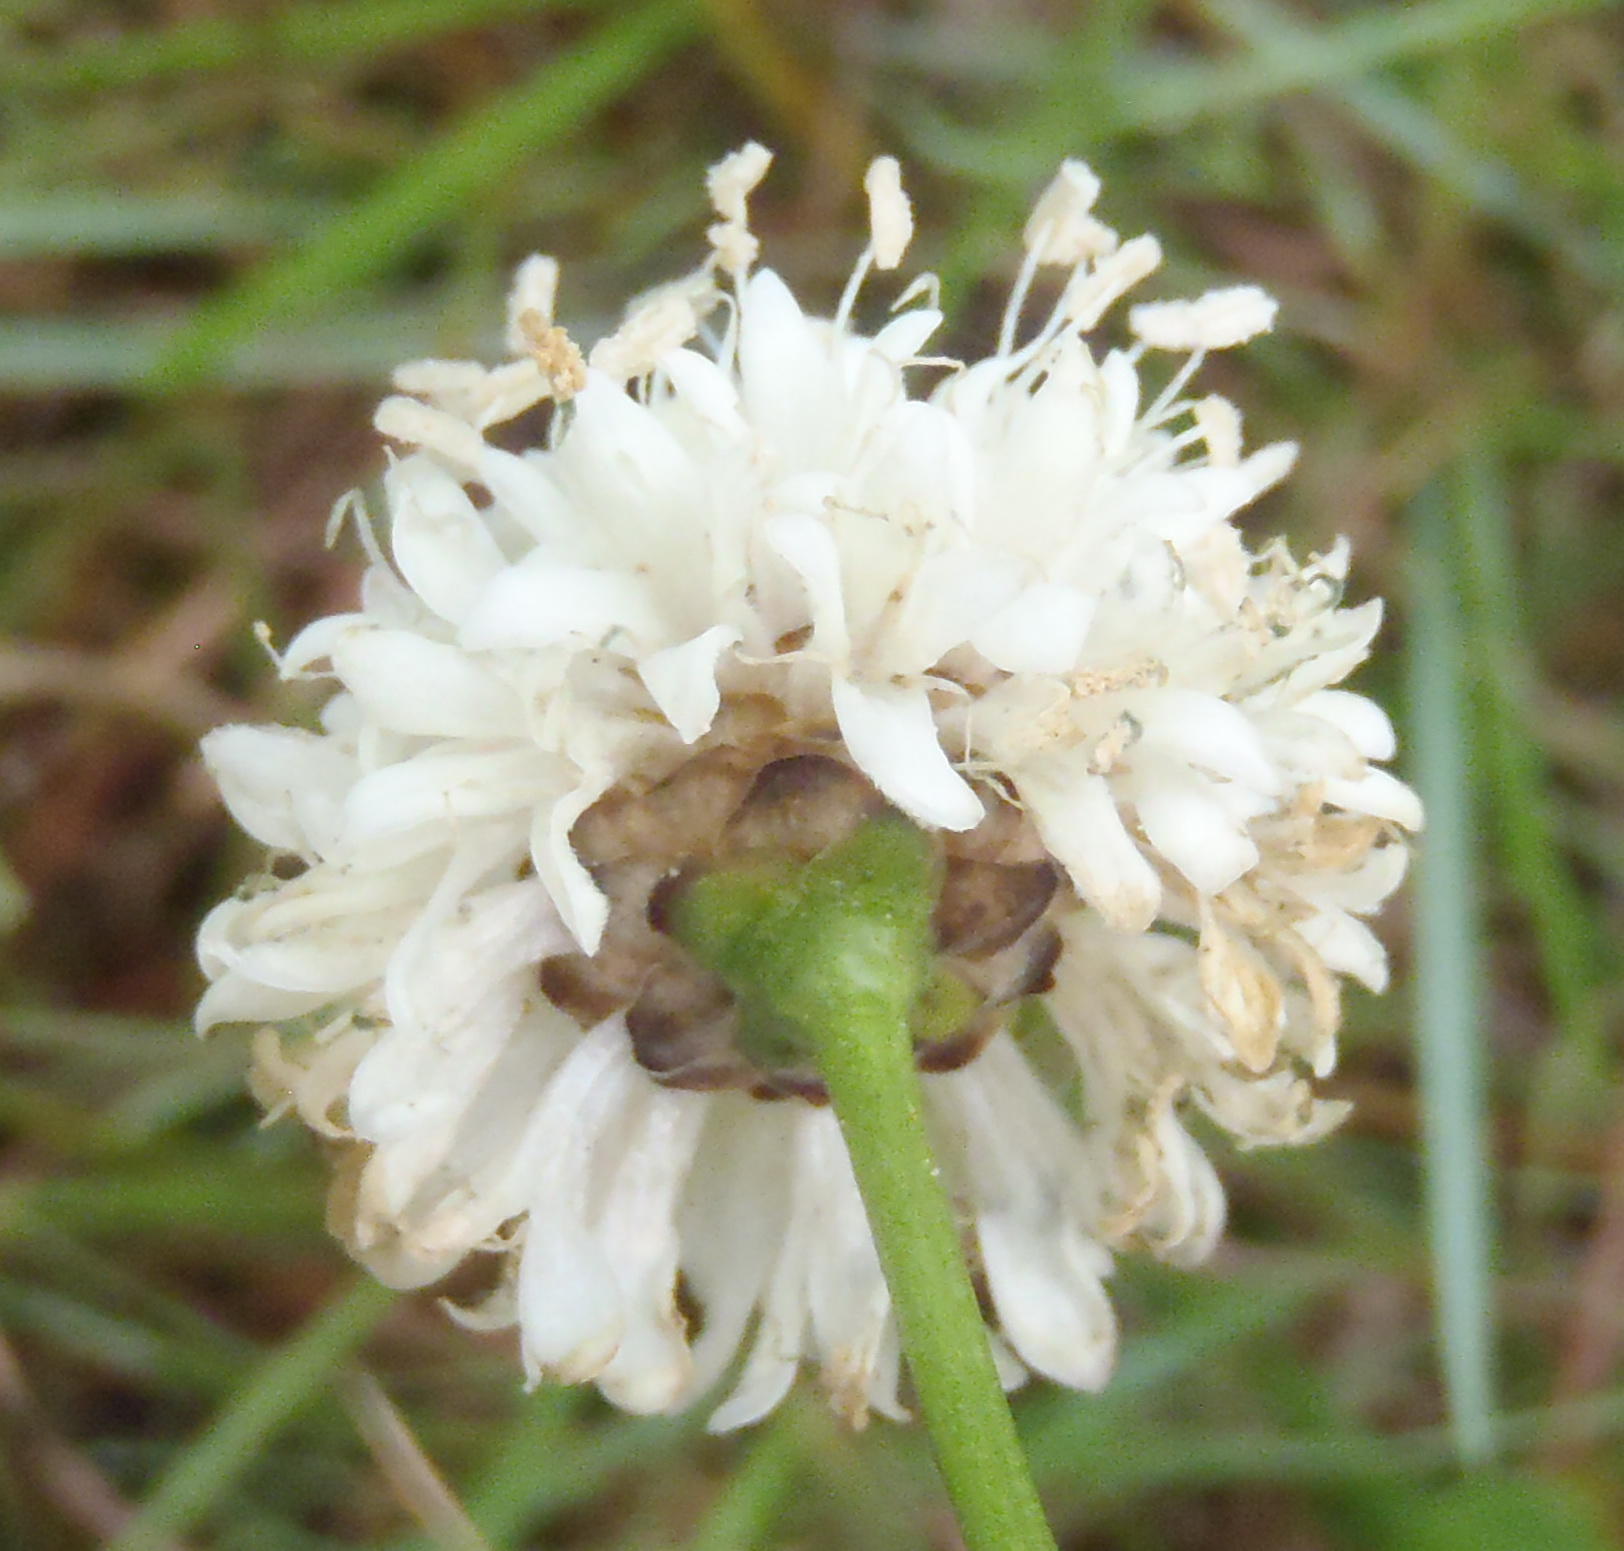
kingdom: Plantae
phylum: Tracheophyta
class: Magnoliopsida
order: Dipsacales
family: Caprifoliaceae
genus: Cephalaria
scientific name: Cephalaria humilis
